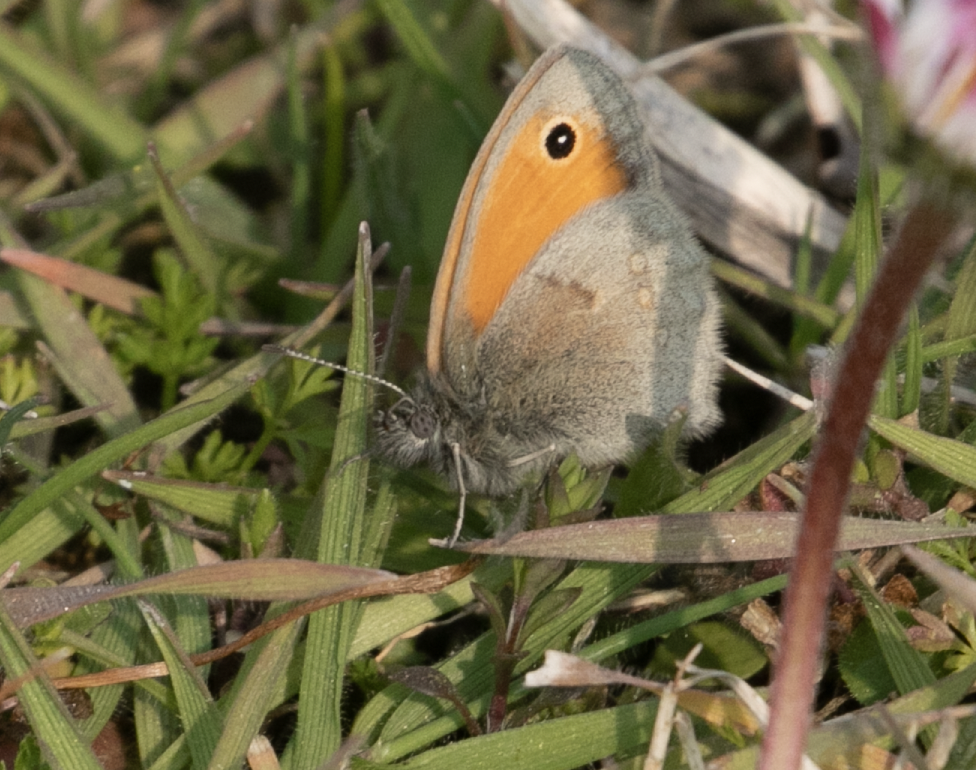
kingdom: Animalia
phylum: Arthropoda
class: Insecta
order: Lepidoptera
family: Nymphalidae
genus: Coenonympha
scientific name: Coenonympha pamphilus
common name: Small heath
